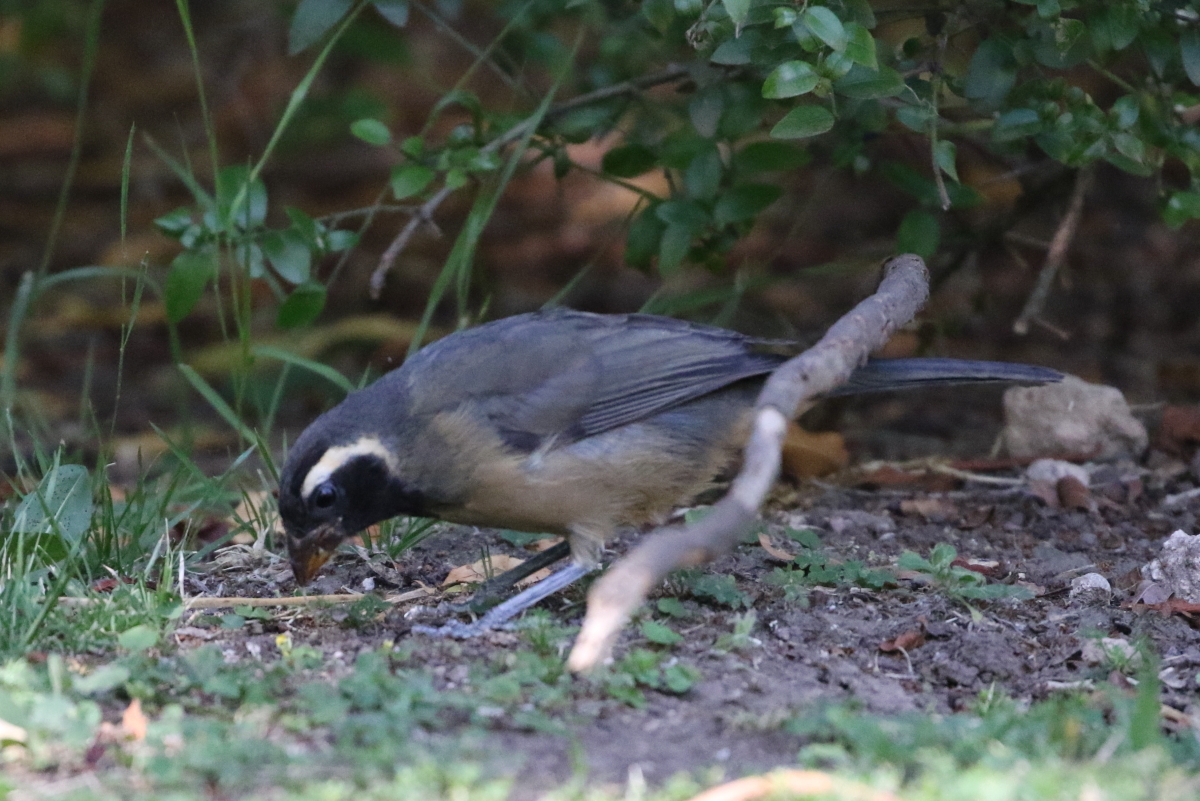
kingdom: Animalia
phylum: Chordata
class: Aves
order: Passeriformes
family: Thraupidae
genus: Saltator
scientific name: Saltator aurantiirostris
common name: Golden-billed saltator
